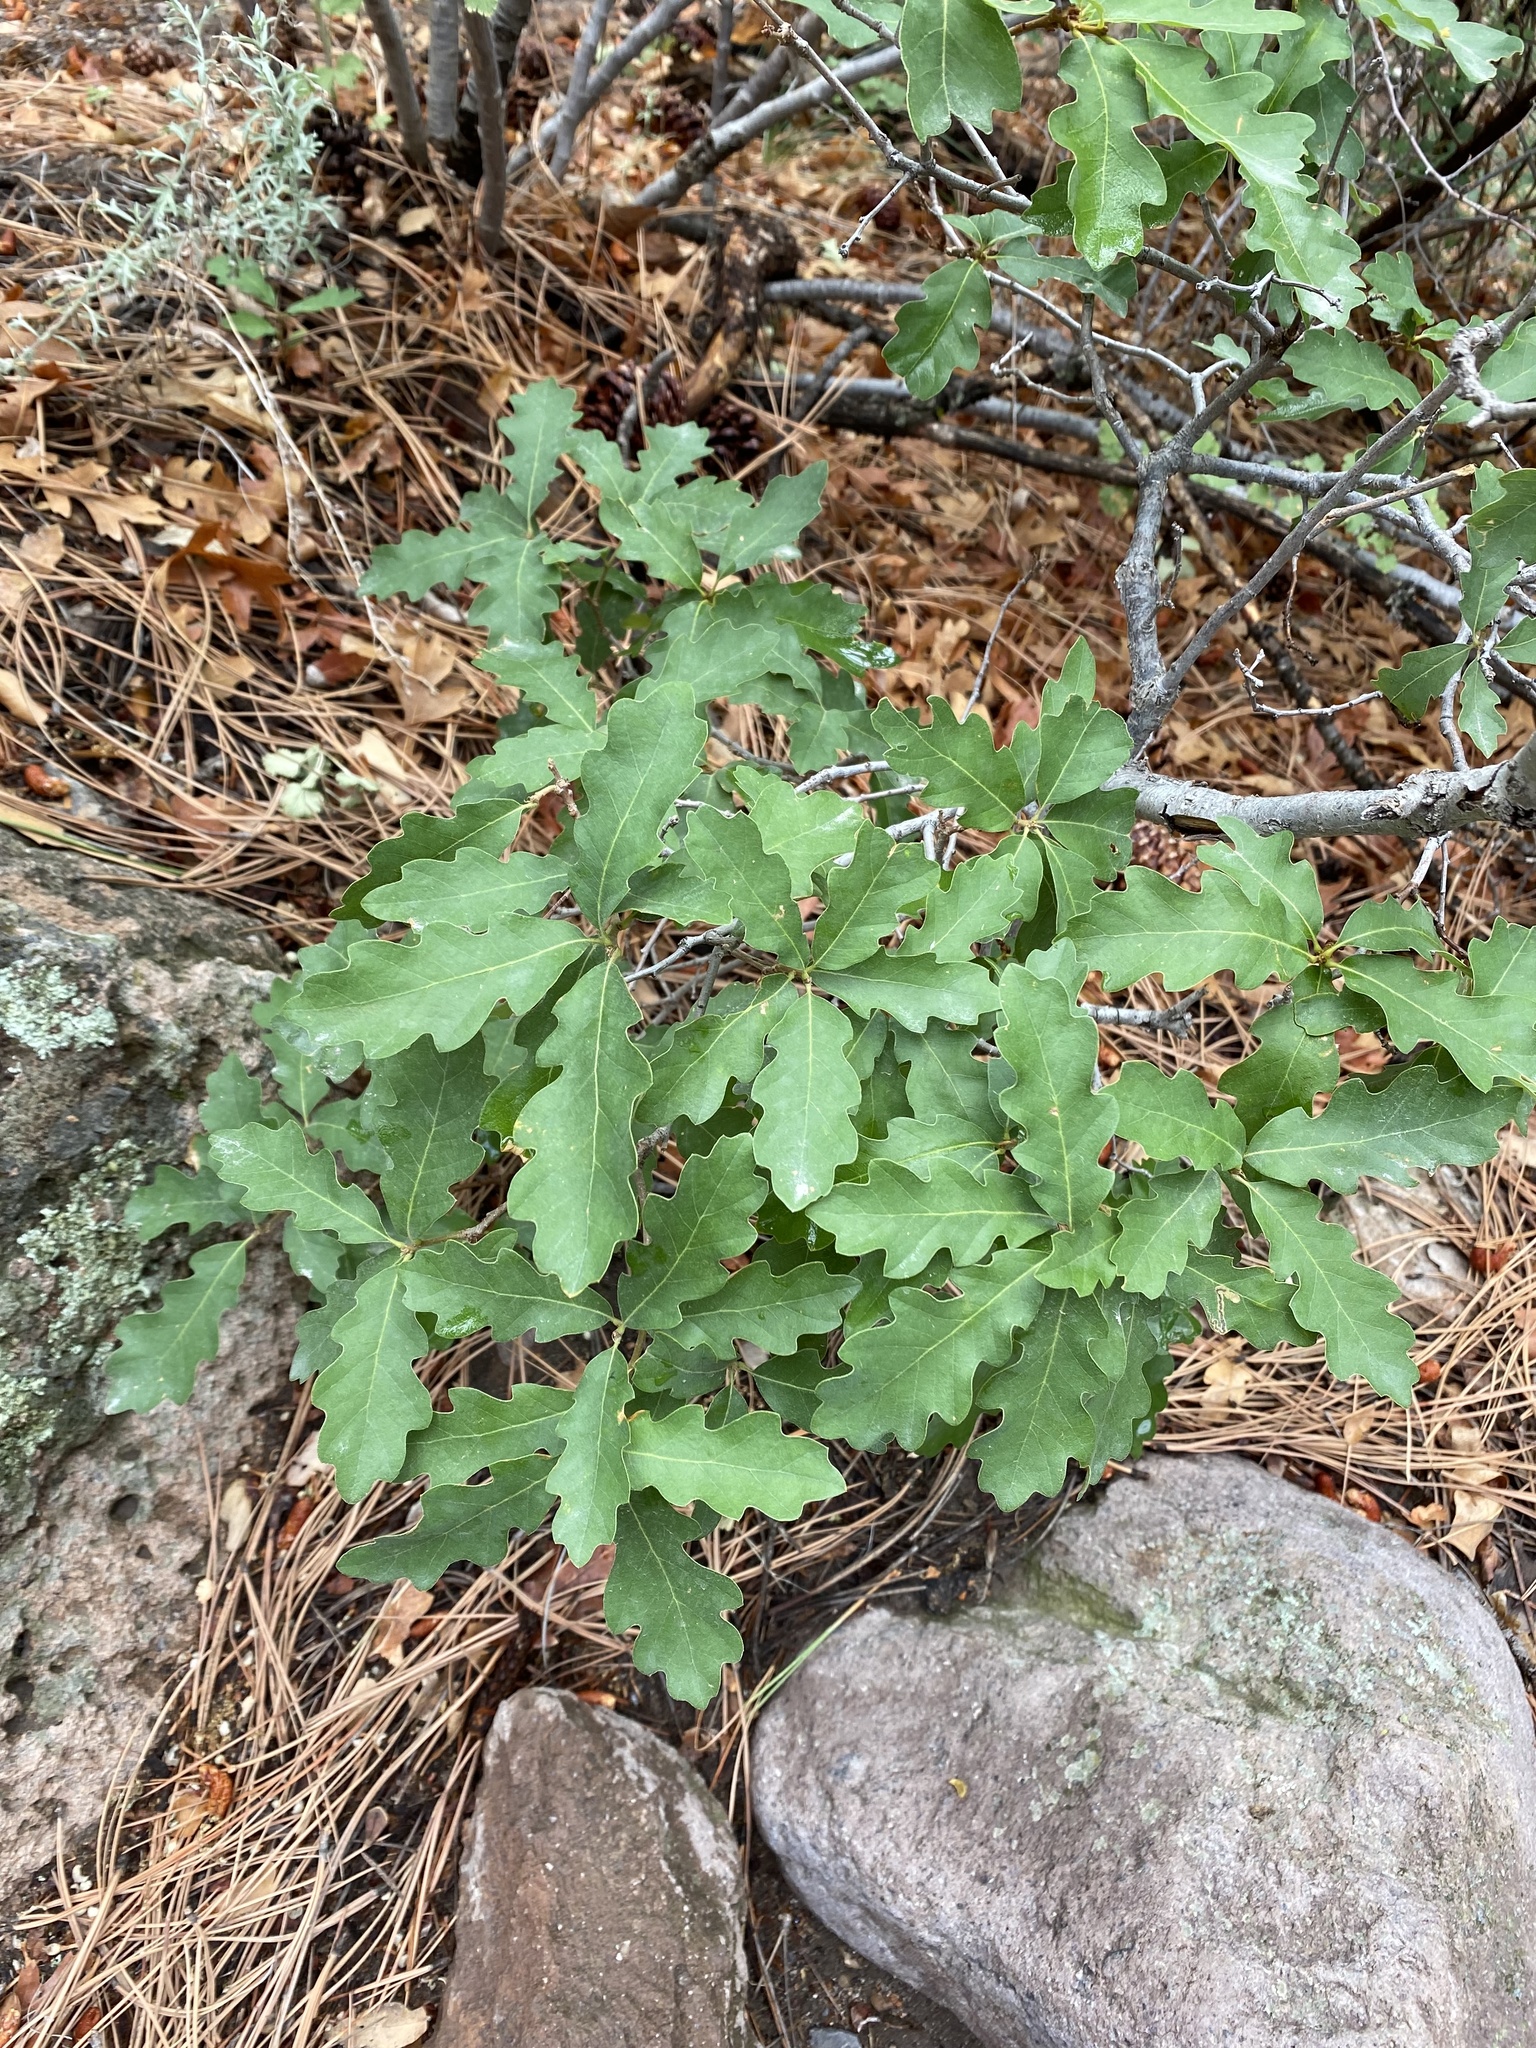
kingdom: Plantae
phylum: Tracheophyta
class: Magnoliopsida
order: Fagales
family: Fagaceae
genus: Quercus
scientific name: Quercus undulata
